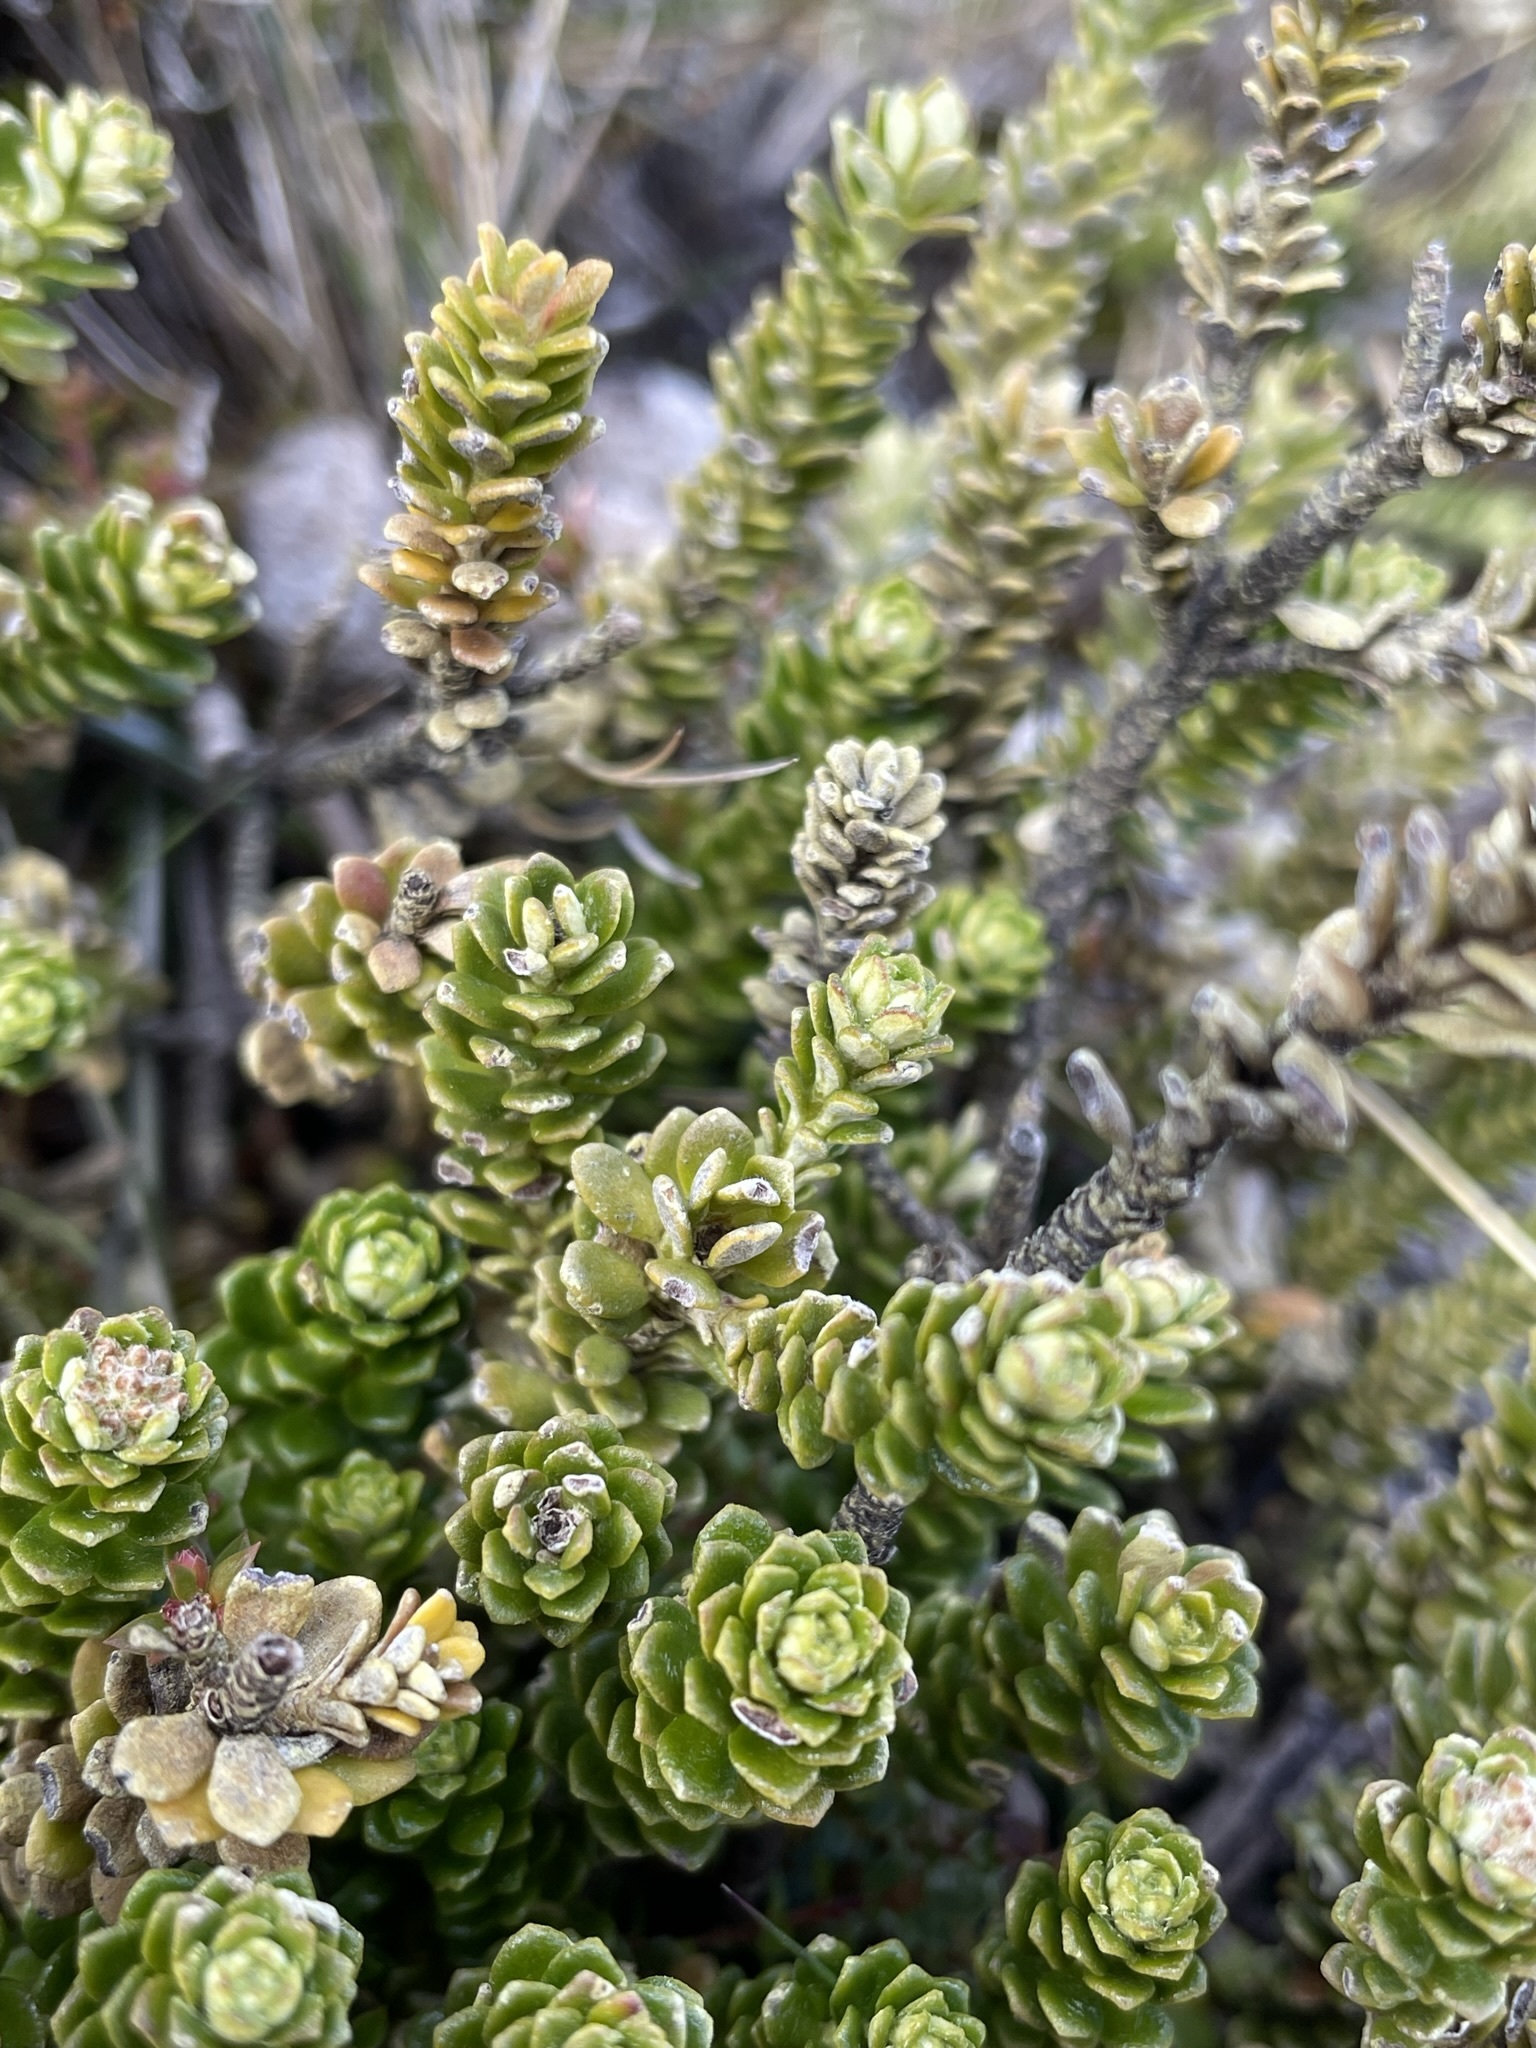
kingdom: Plantae
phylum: Tracheophyta
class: Magnoliopsida
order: Asterales
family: Asteraceae
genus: Ozothamnus
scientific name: Ozothamnus rodwayi
